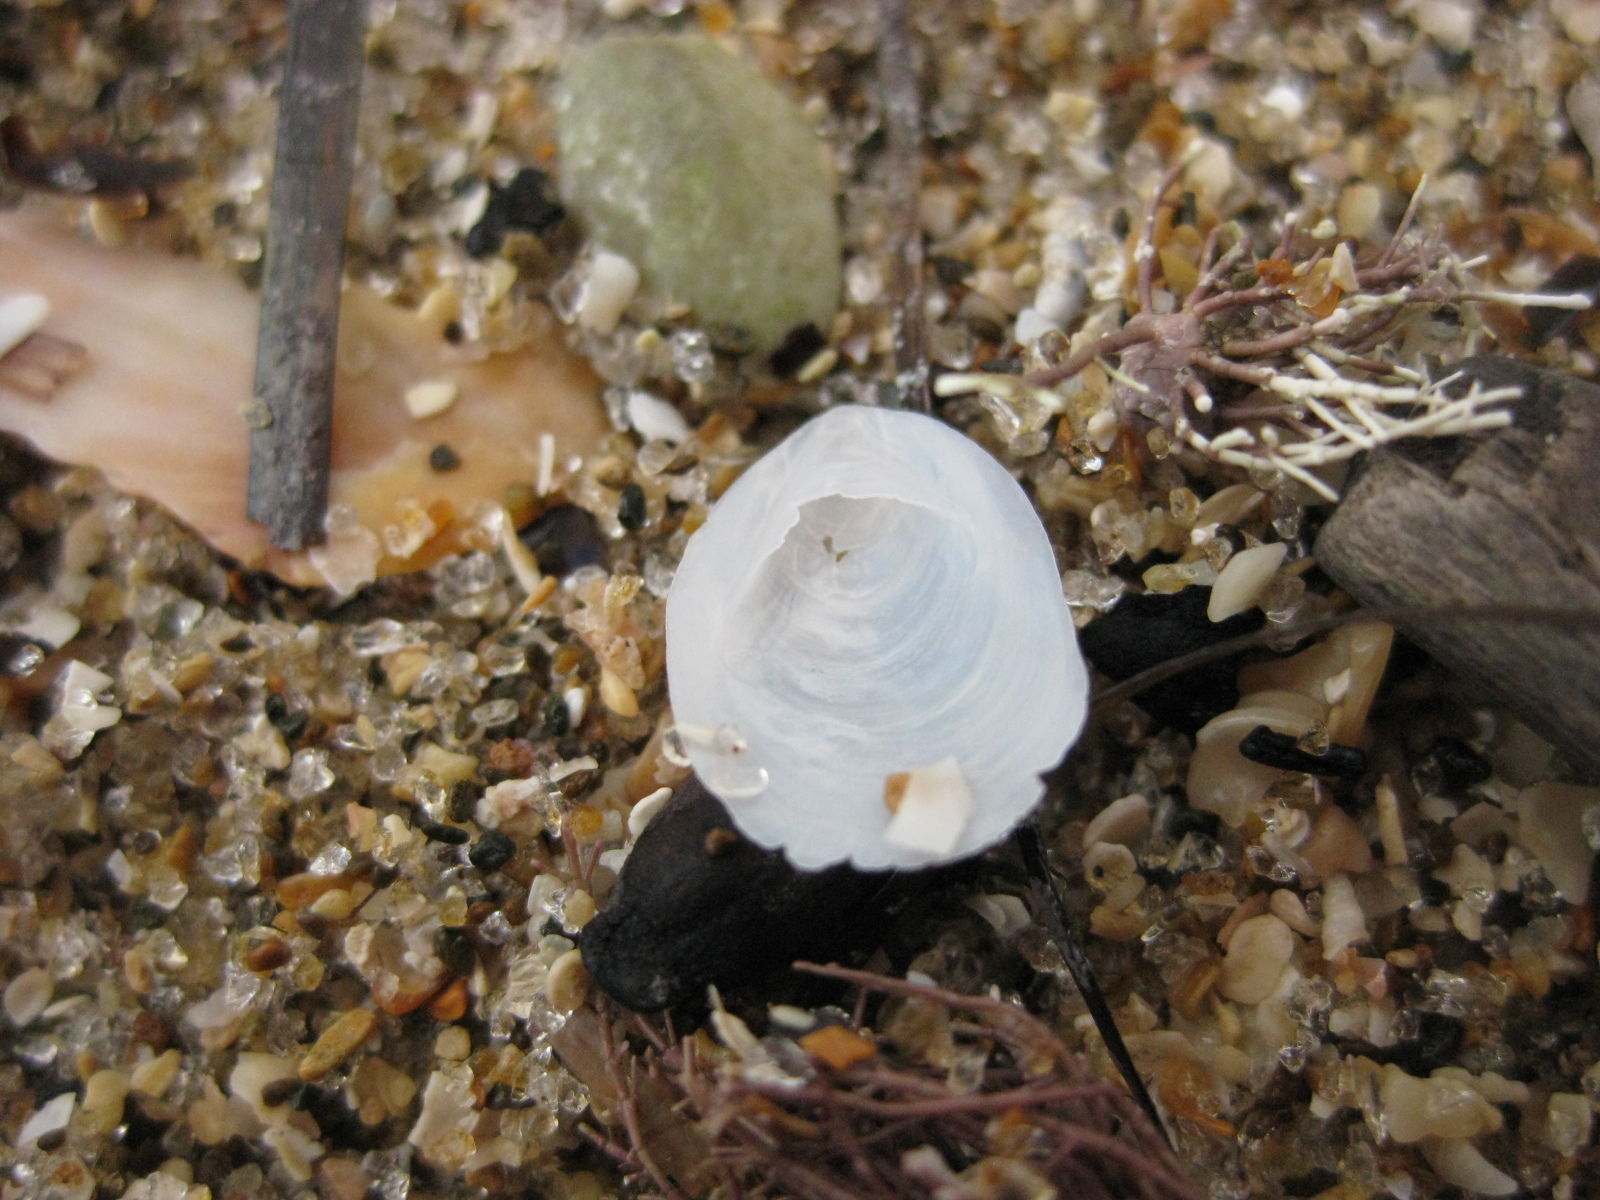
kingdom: Animalia
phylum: Mollusca
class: Gastropoda
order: Littorinimorpha
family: Calyptraeidae
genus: Maoricrypta
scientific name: Maoricrypta sodalis
